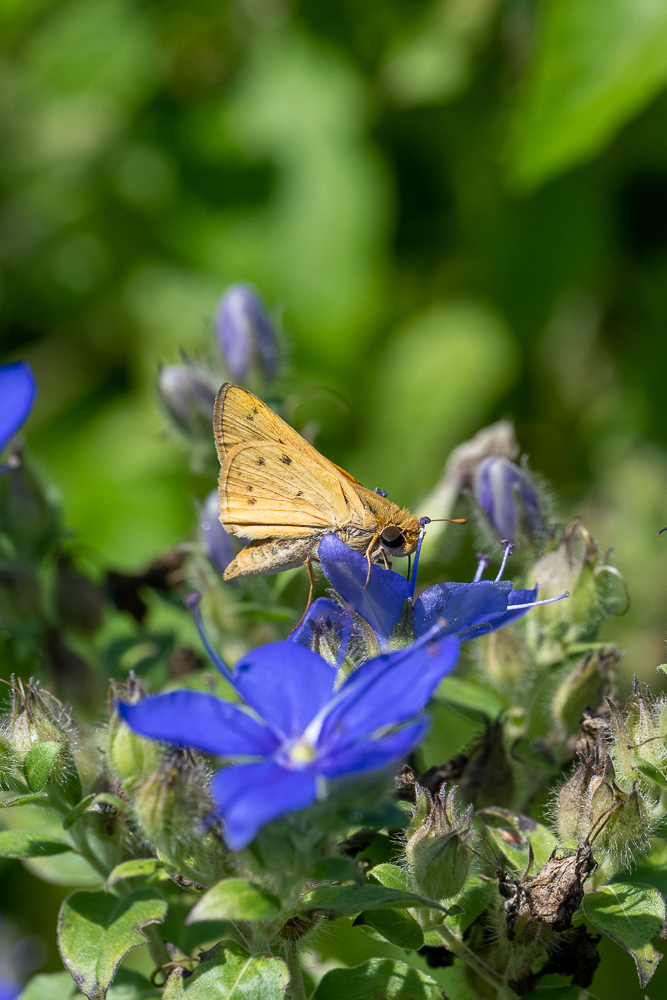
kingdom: Animalia
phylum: Arthropoda
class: Insecta
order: Lepidoptera
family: Hesperiidae
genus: Hylephila
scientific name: Hylephila phyleus
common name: Fiery skipper
